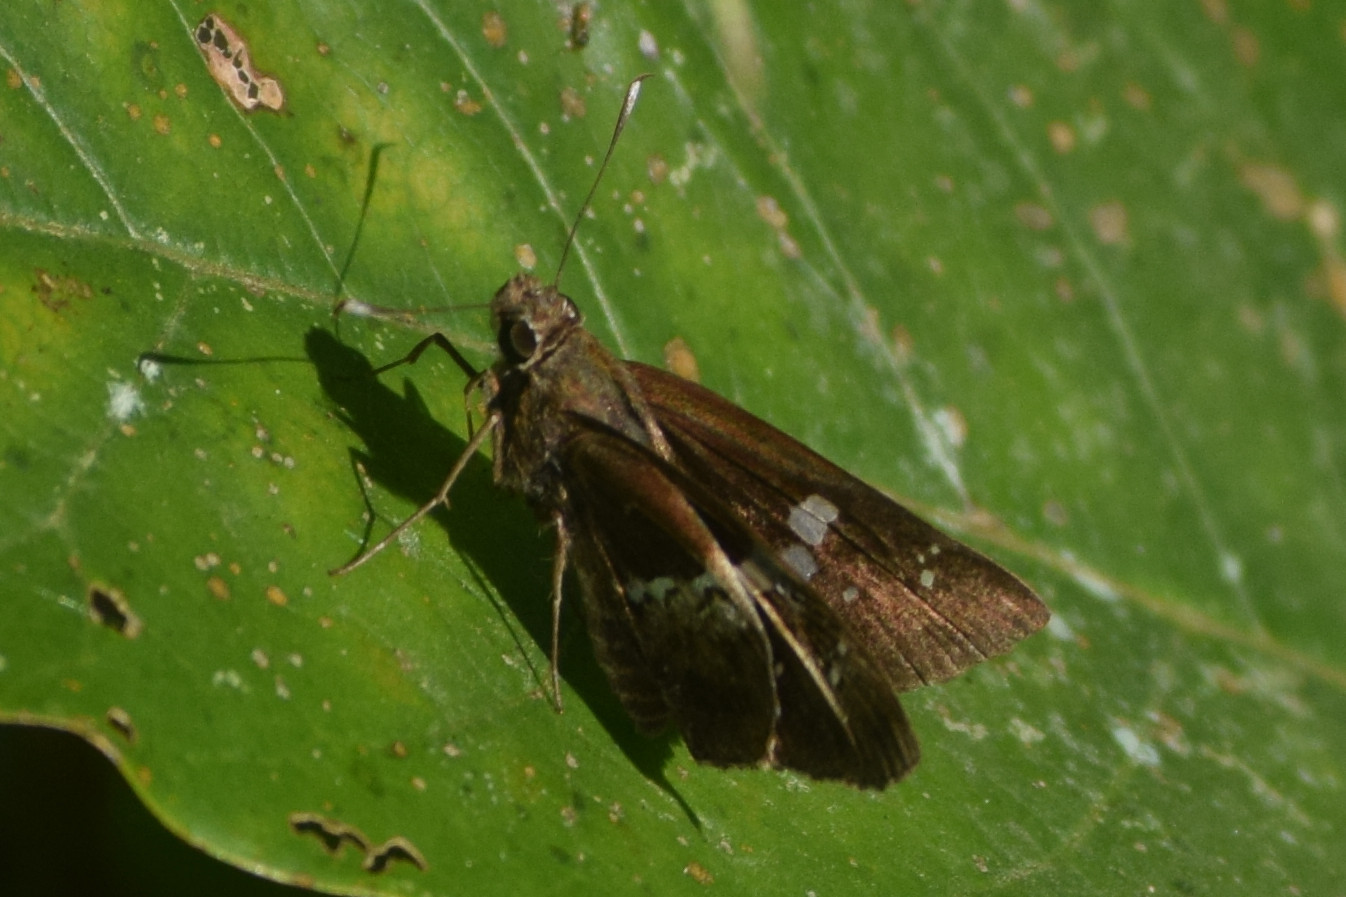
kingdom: Animalia
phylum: Arthropoda
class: Insecta
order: Lepidoptera
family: Hesperiidae
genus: Hyarotis
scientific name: Hyarotis adrastus
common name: Tree flitter
